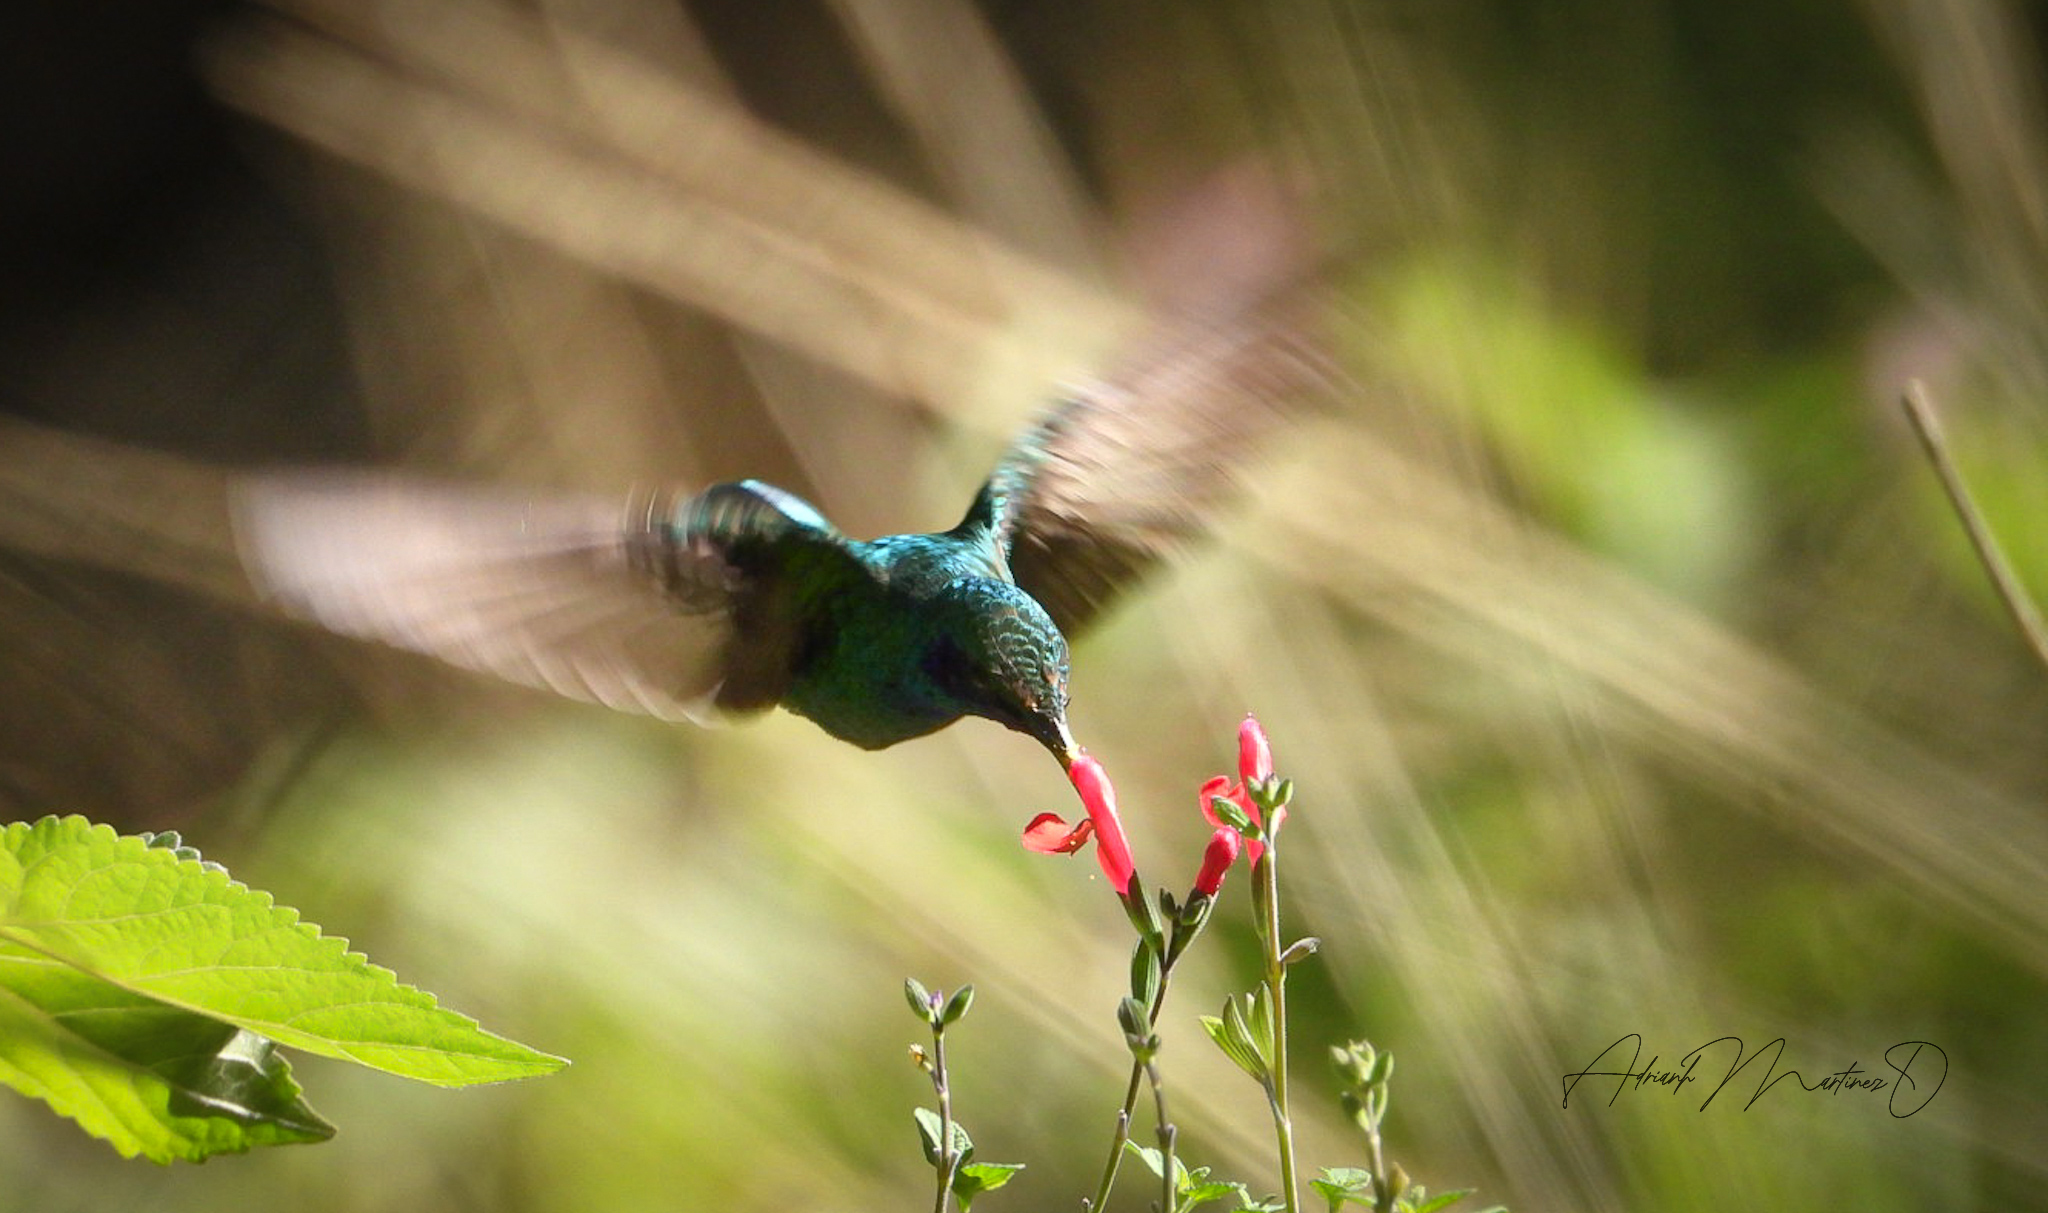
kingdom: Animalia
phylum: Chordata
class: Aves
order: Apodiformes
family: Trochilidae
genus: Colibri
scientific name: Colibri thalassinus
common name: Green violetear
